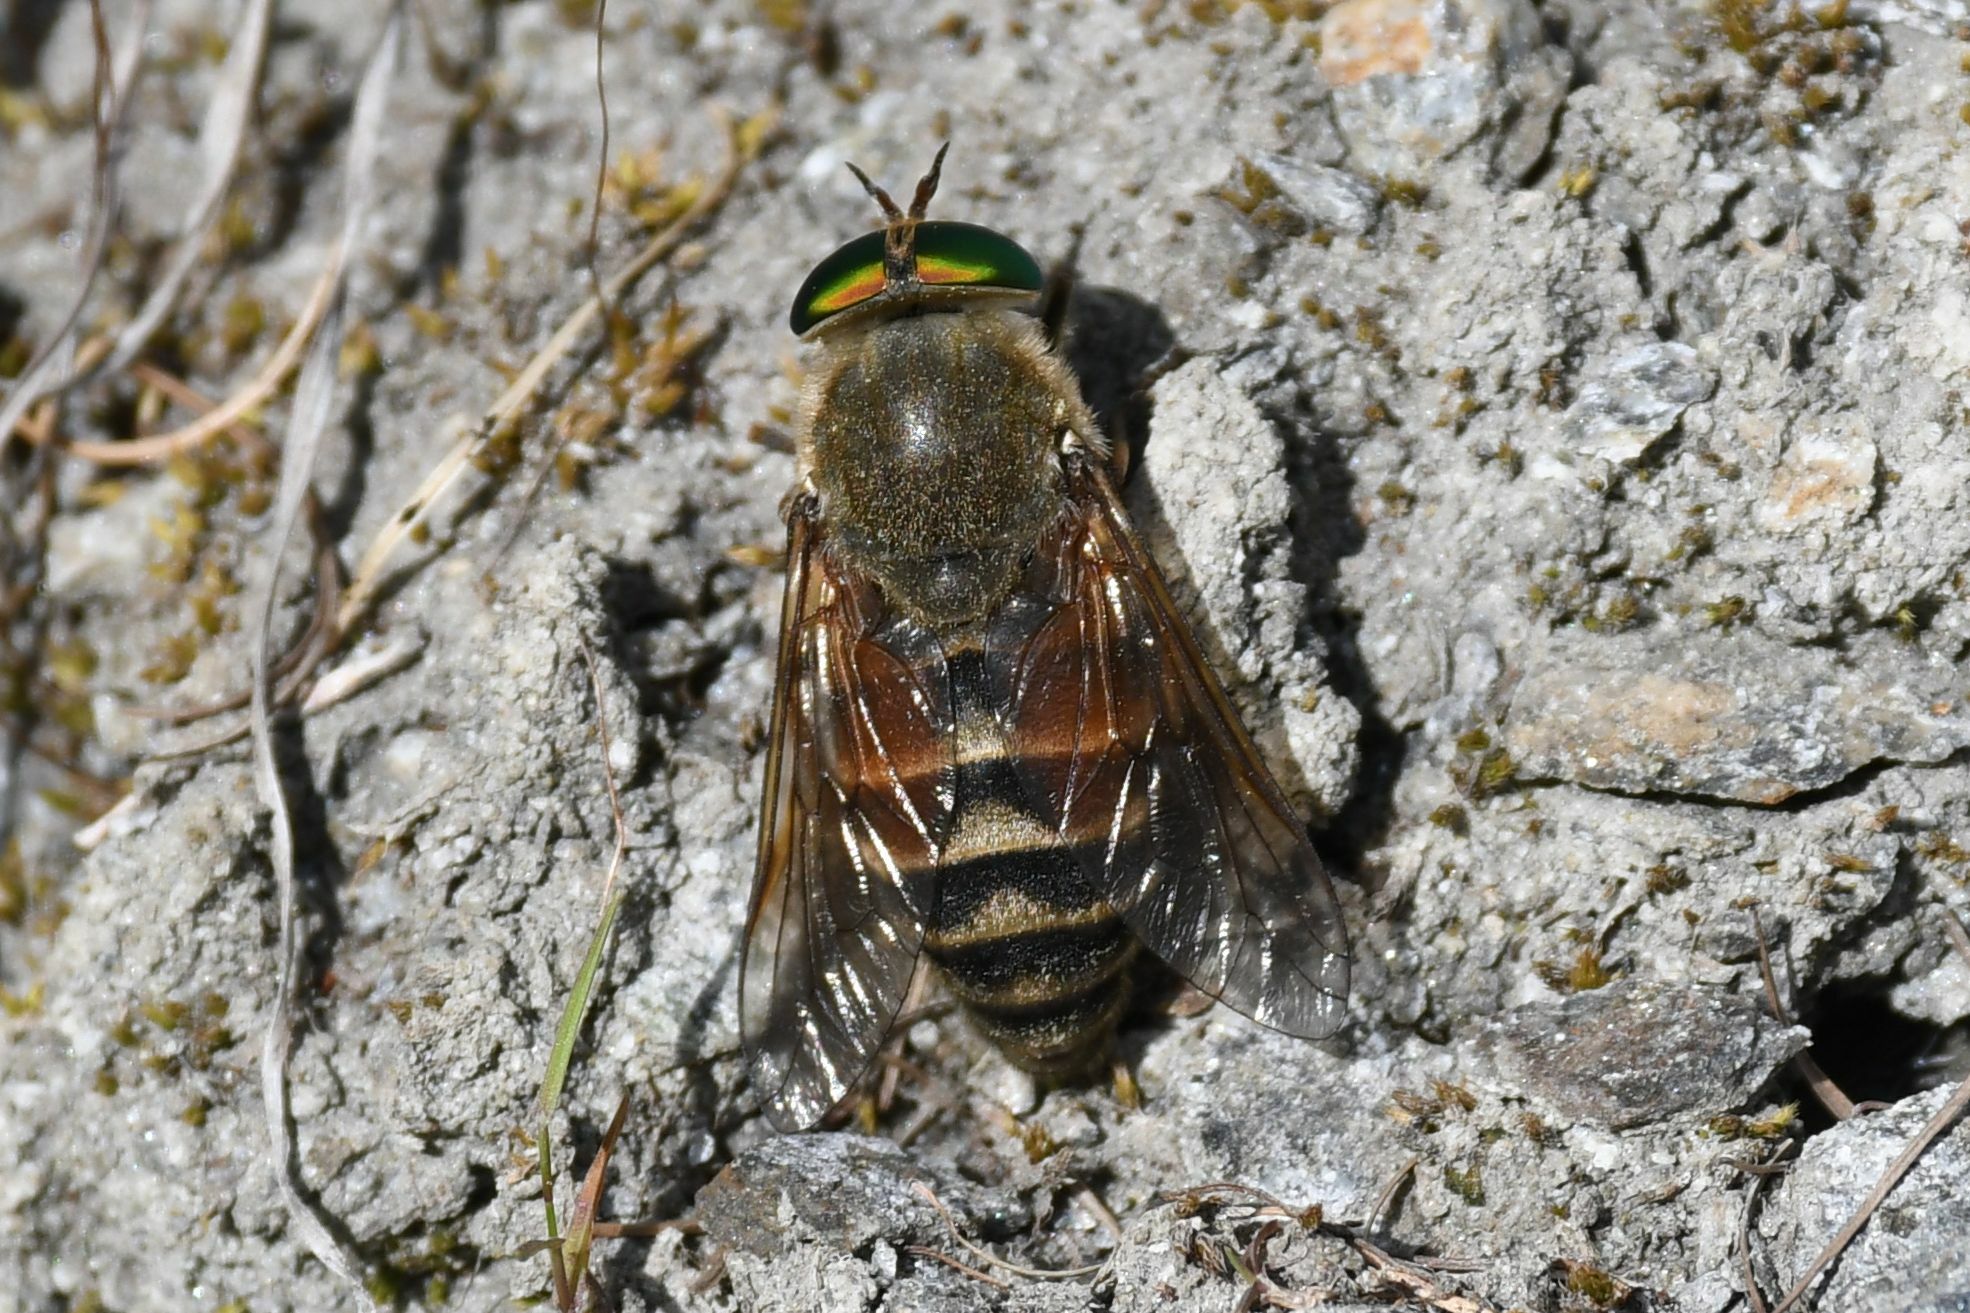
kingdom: Animalia
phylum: Arthropoda
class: Insecta
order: Diptera
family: Tabanidae
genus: Philipomyia
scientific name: Philipomyia aprica
